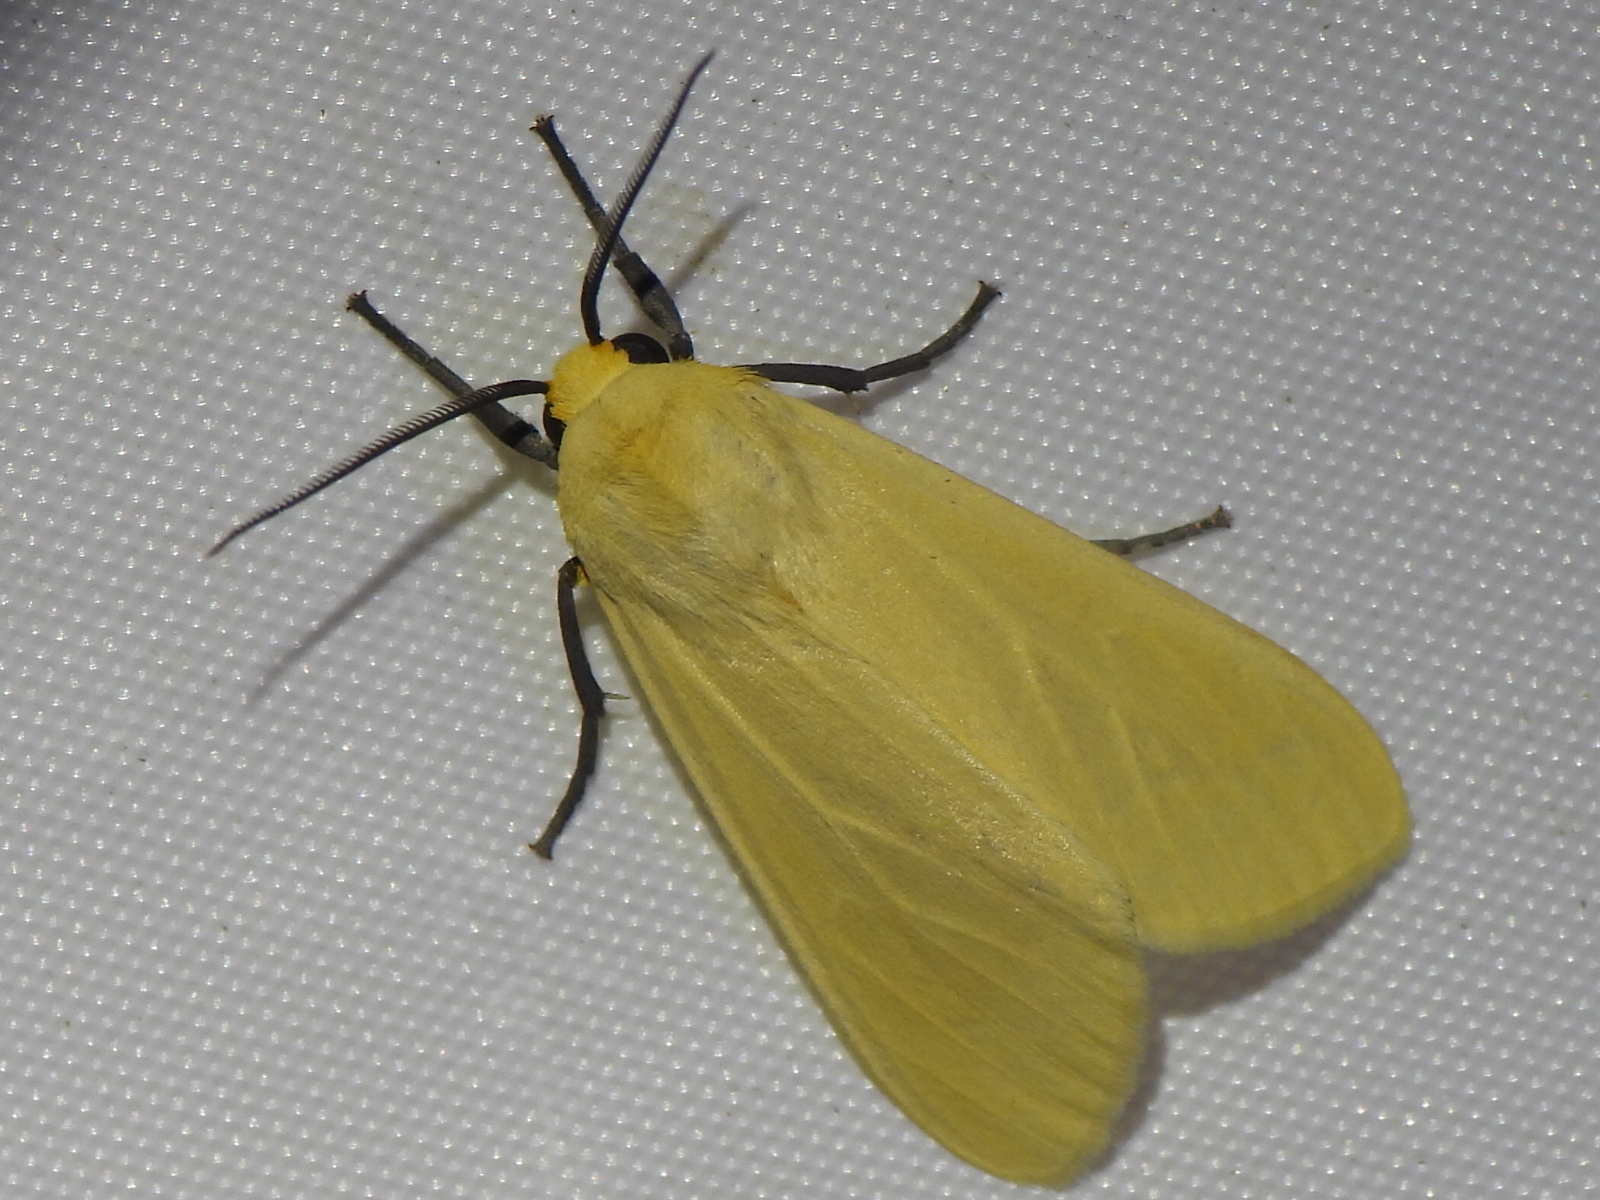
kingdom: Animalia
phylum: Arthropoda
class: Insecta
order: Lepidoptera
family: Erebidae
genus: Pareuchaetes
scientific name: Pareuchaetes insulata
